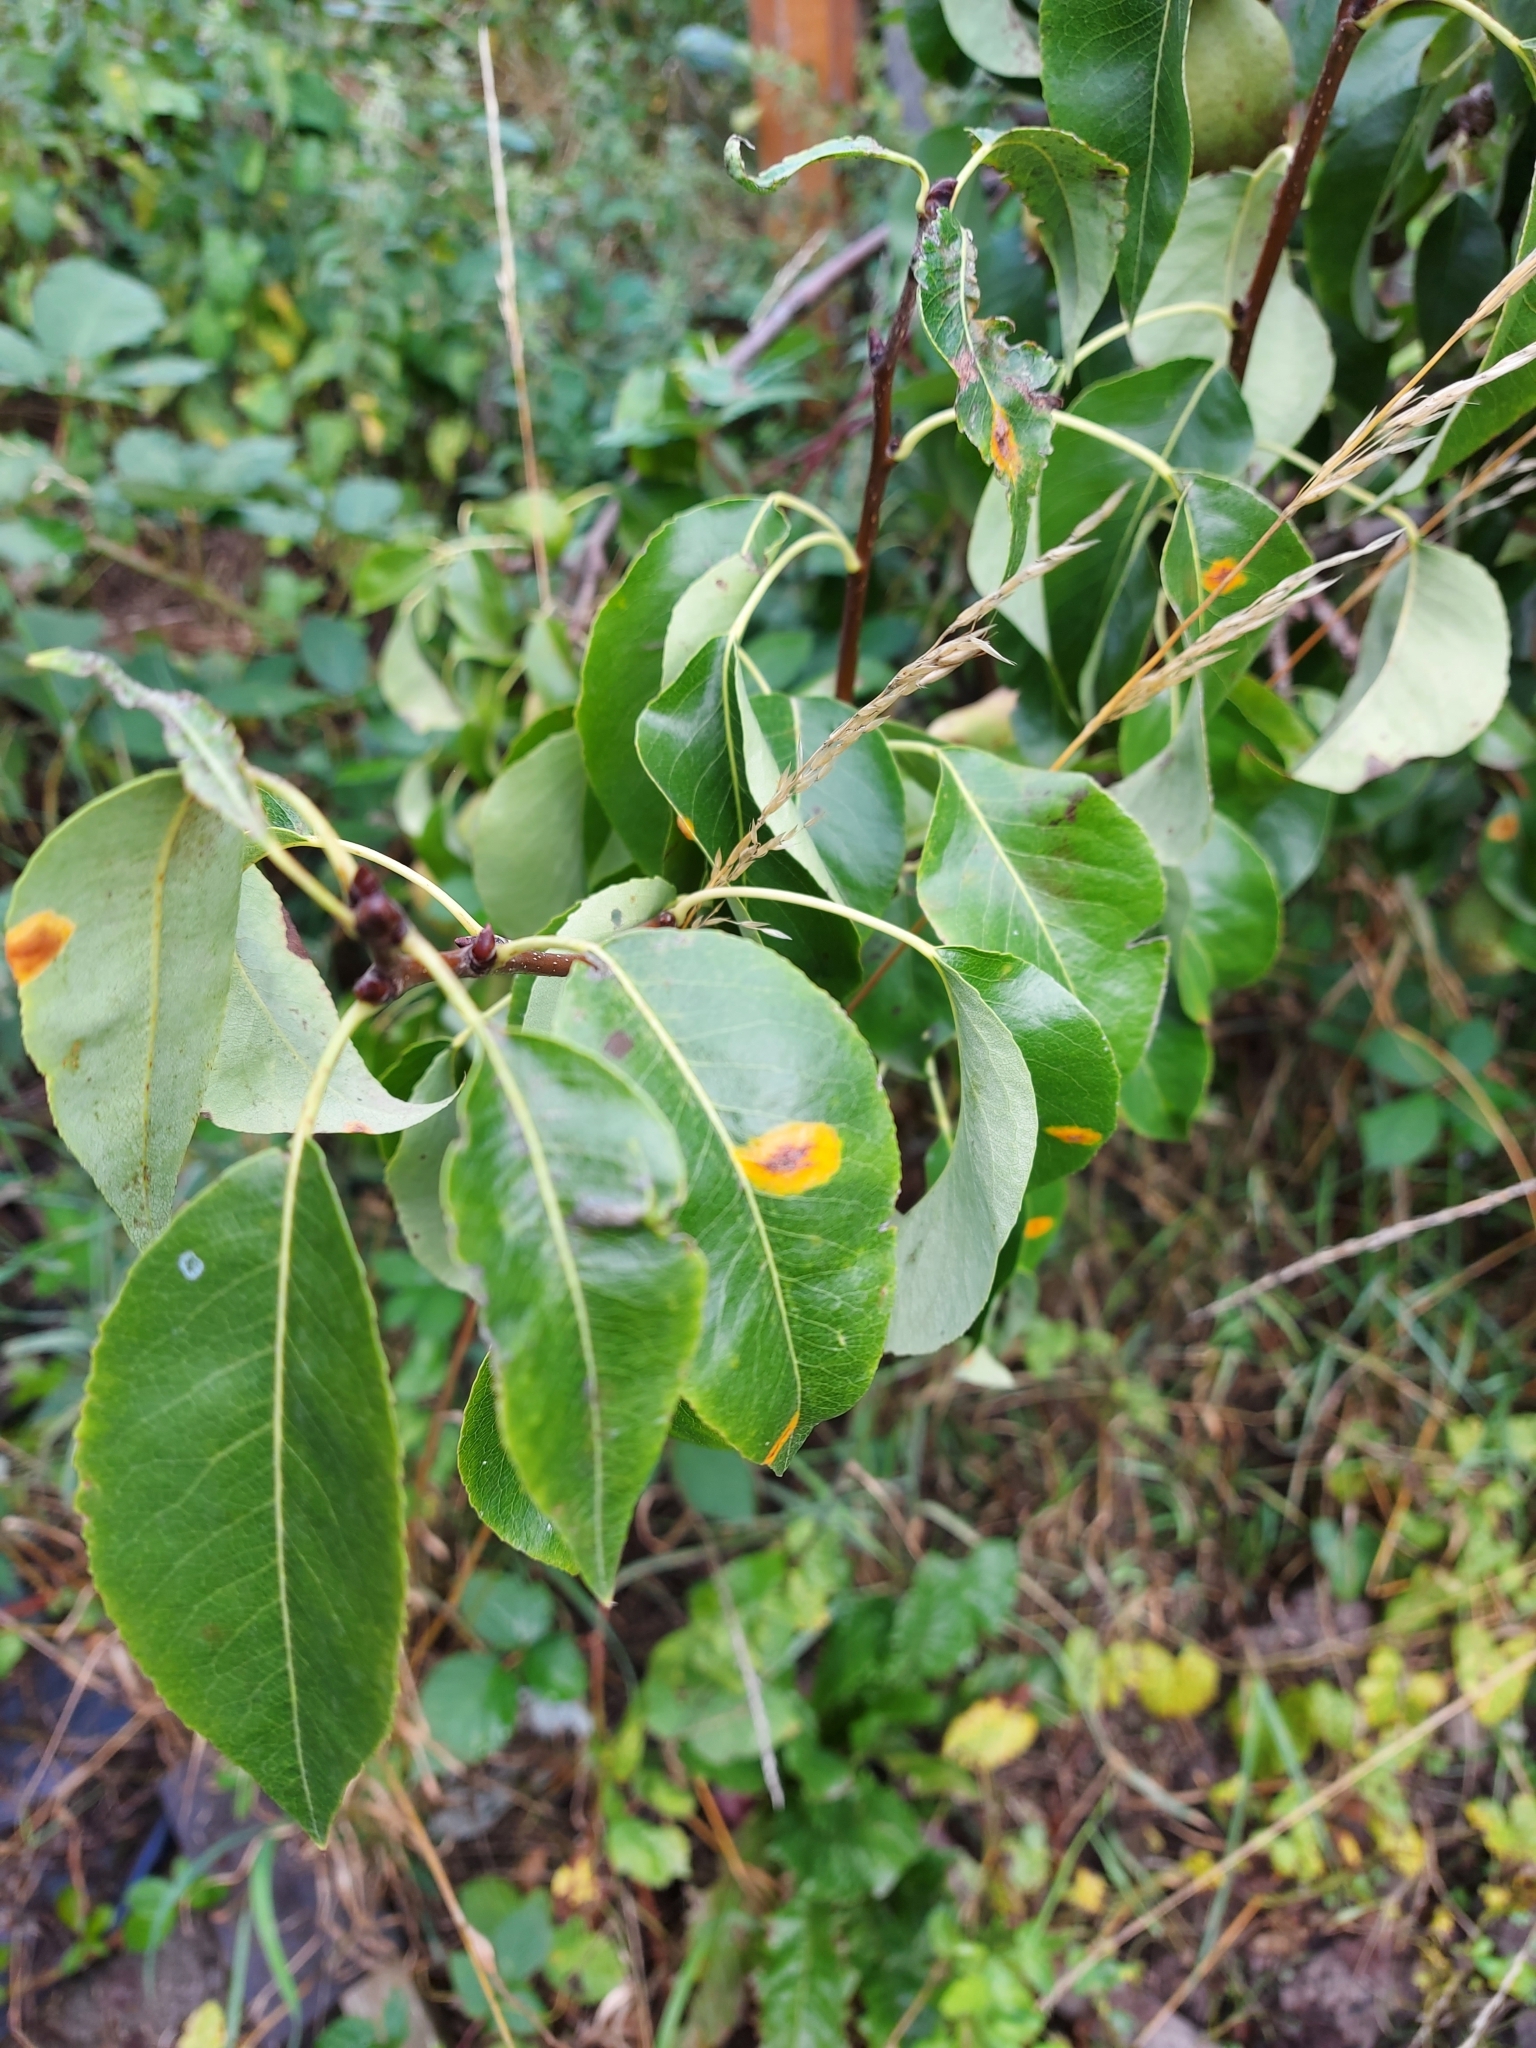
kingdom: Fungi
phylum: Basidiomycota
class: Pucciniomycetes
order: Pucciniales
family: Gymnosporangiaceae
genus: Gymnosporangium
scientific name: Gymnosporangium sabinae
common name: Pear trellis rust fungus
